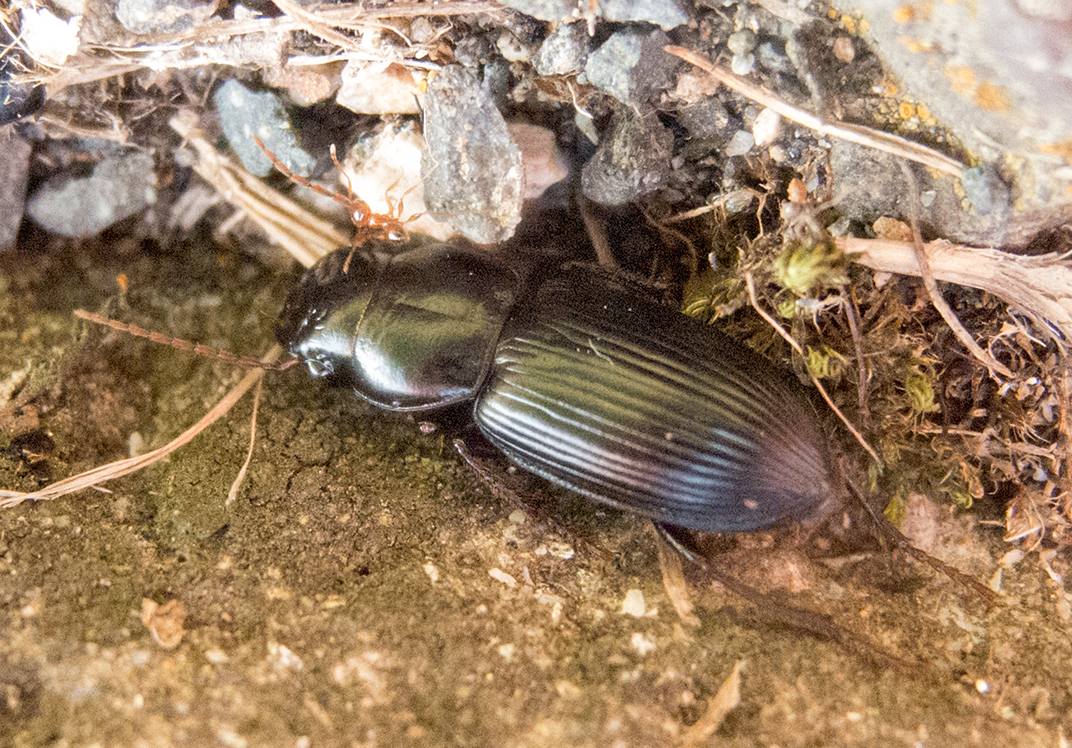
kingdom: Animalia
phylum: Arthropoda
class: Insecta
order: Coleoptera
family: Carabidae
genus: Acinopus
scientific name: Acinopus megacephalus
